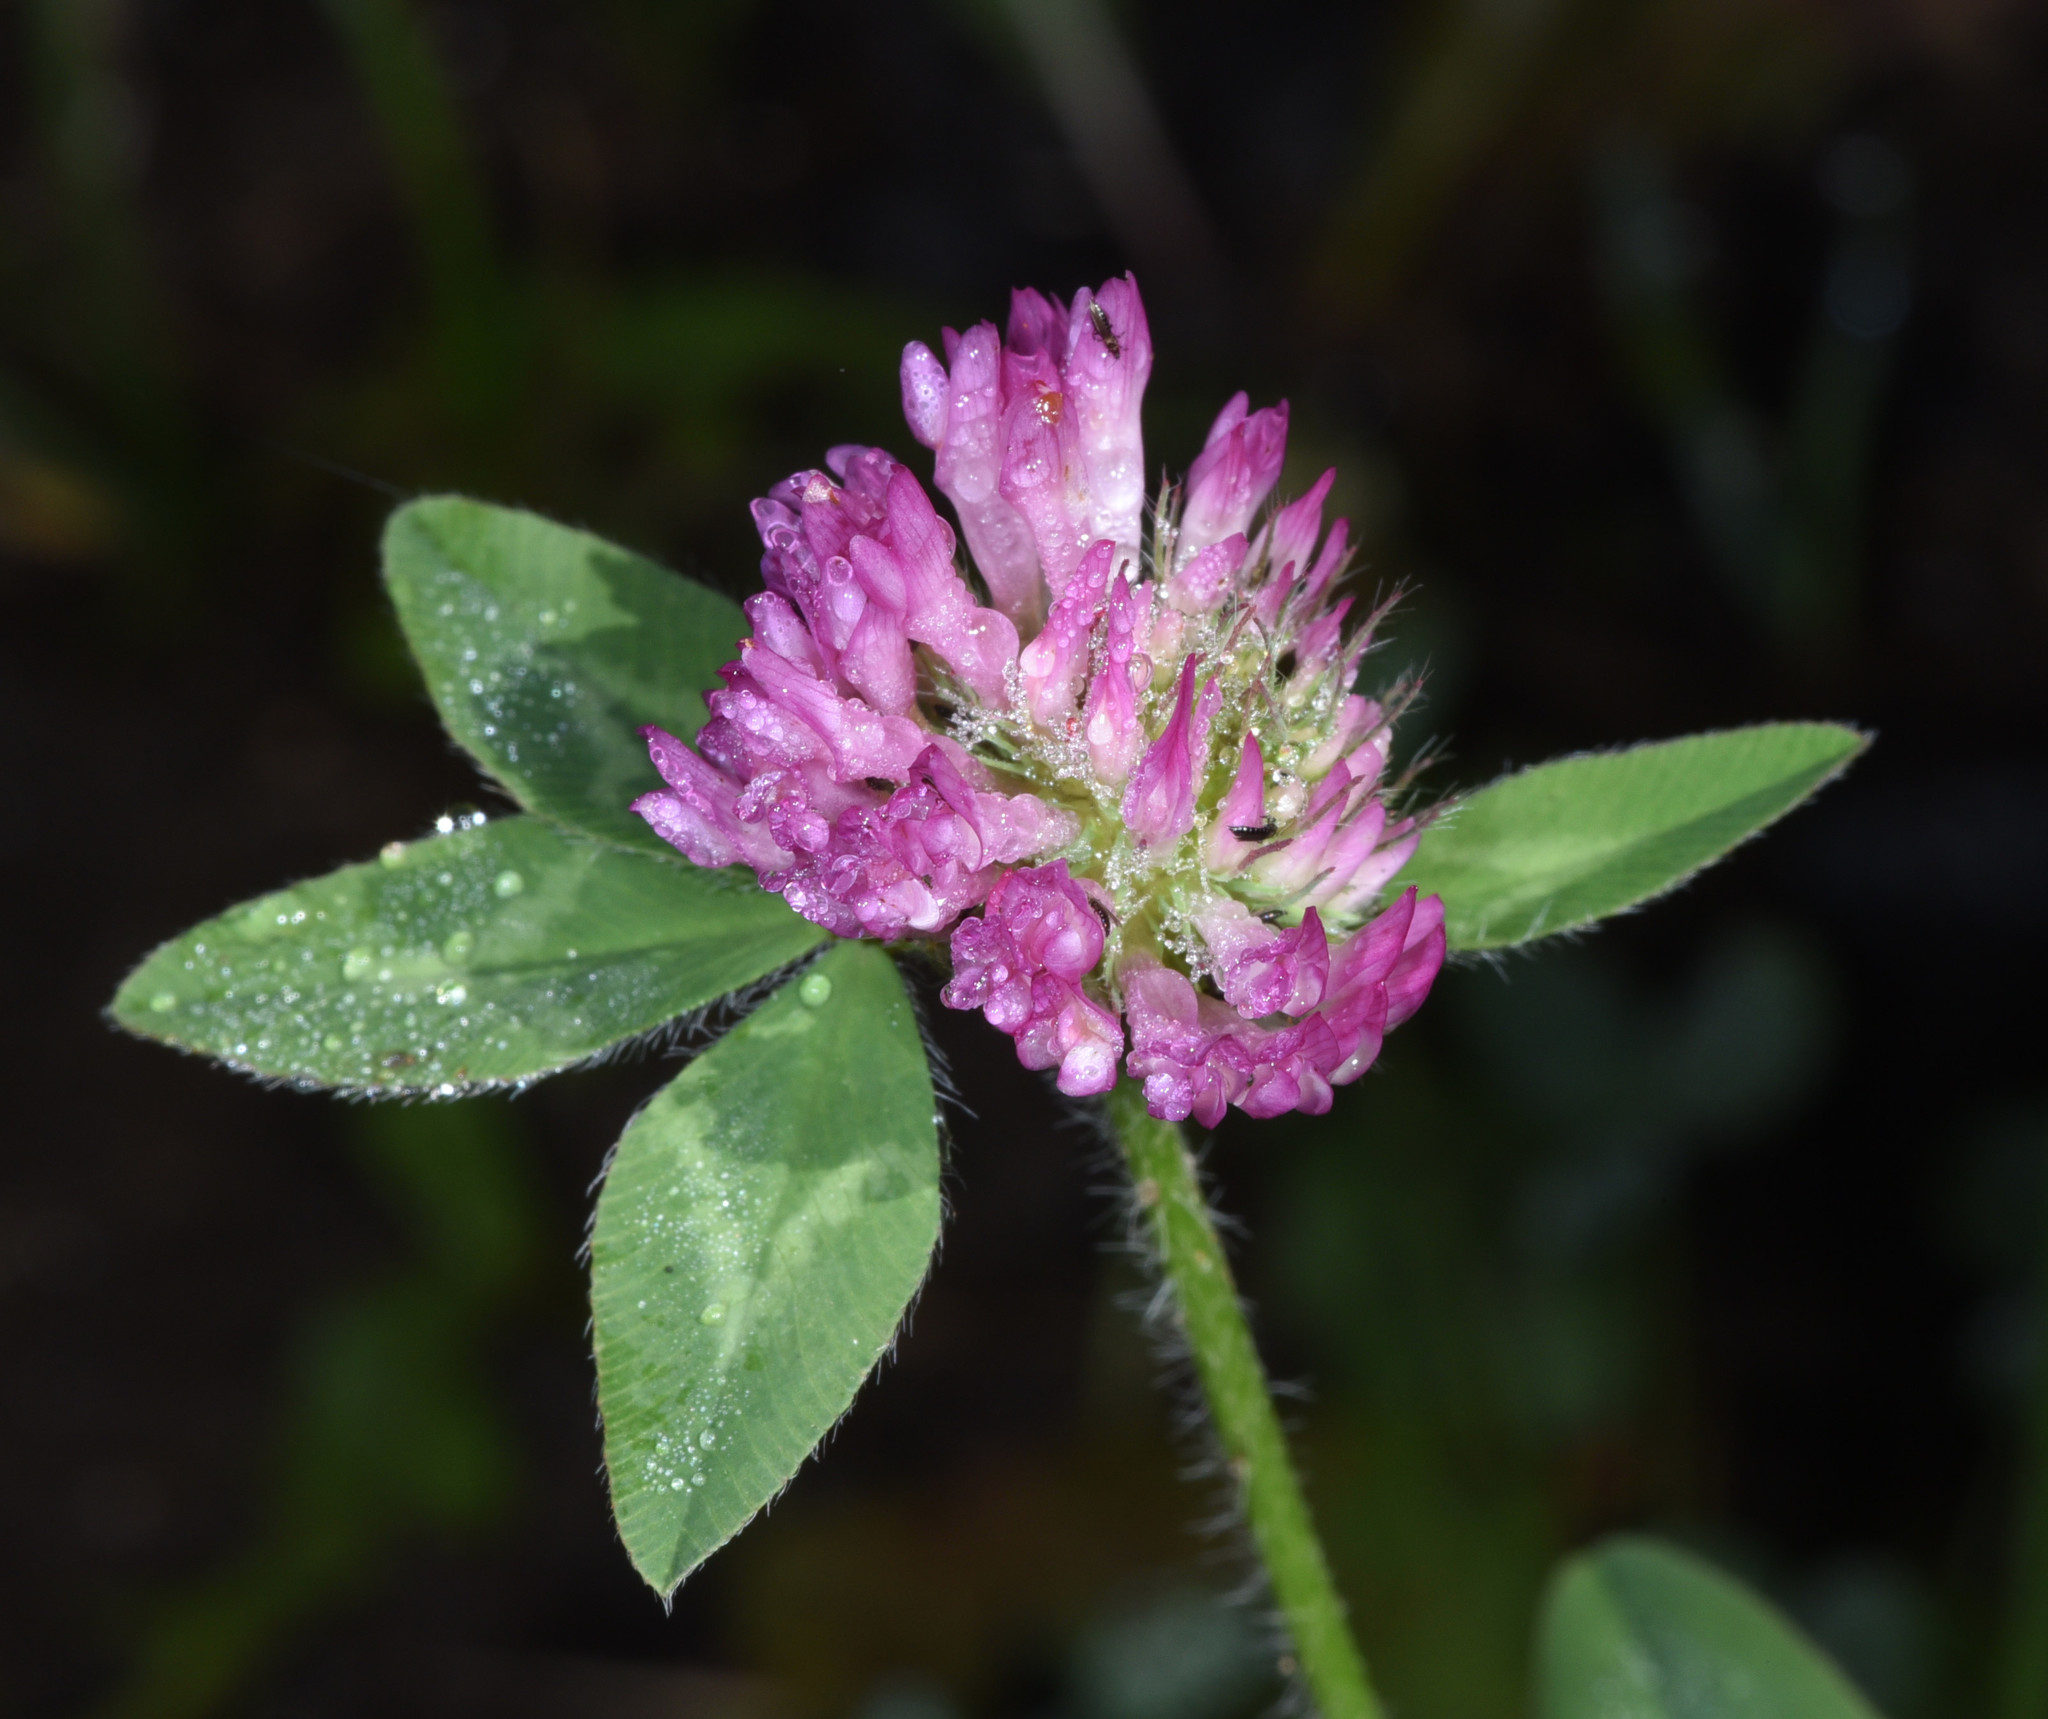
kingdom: Plantae
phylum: Tracheophyta
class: Magnoliopsida
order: Fabales
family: Fabaceae
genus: Trifolium
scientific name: Trifolium pratense
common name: Red clover
